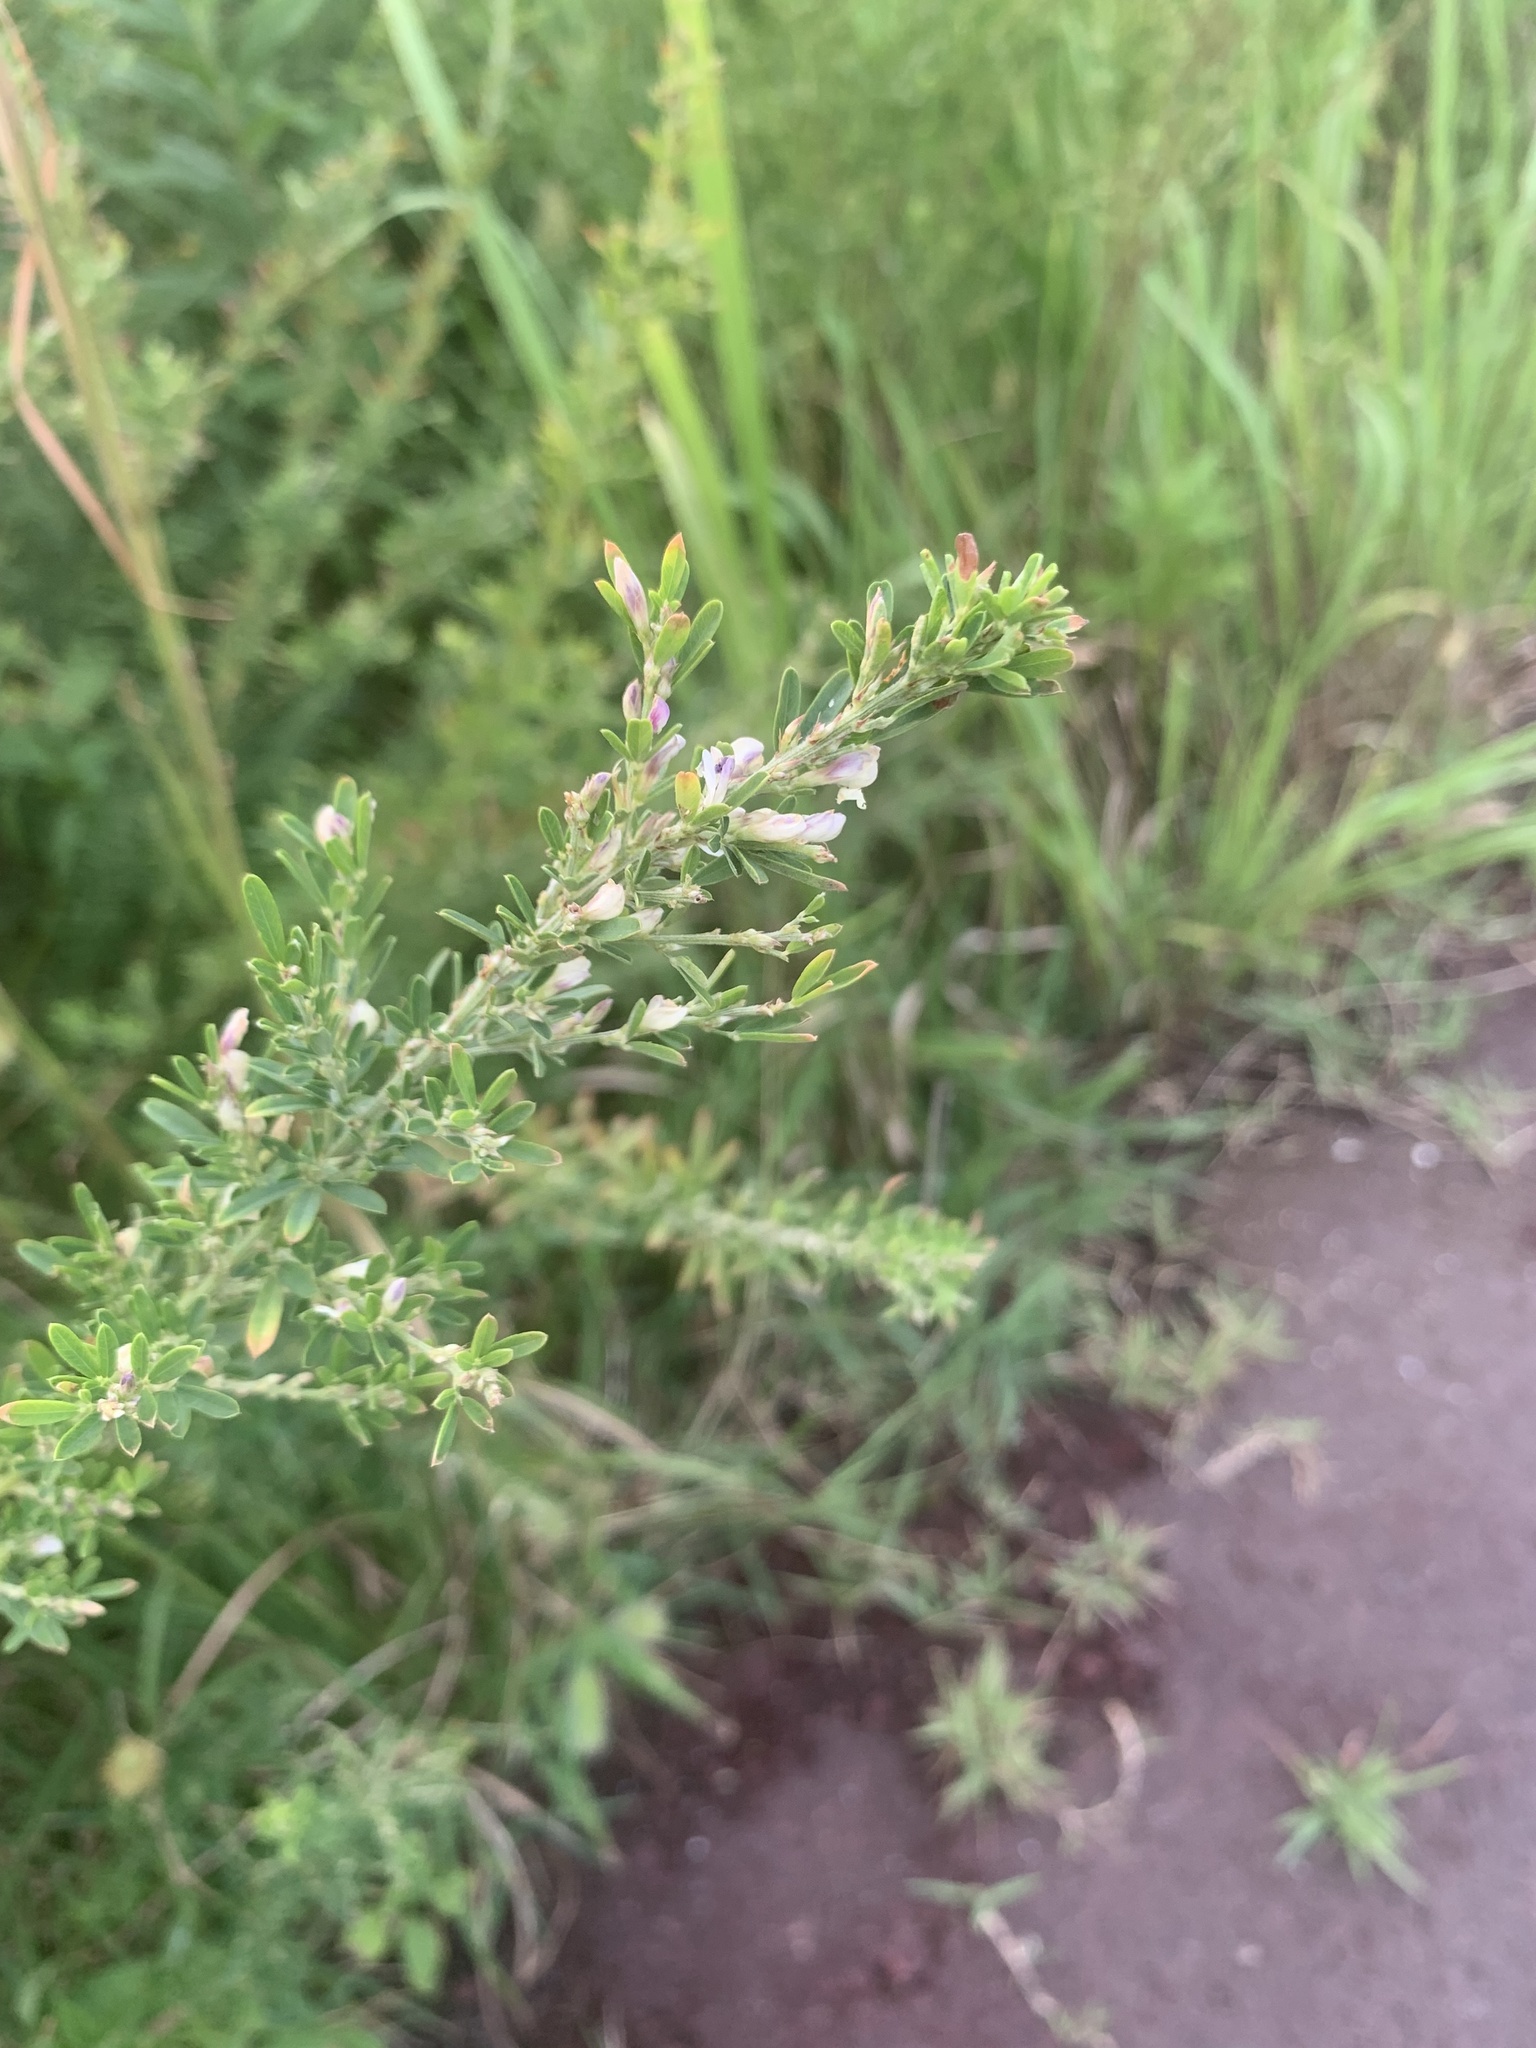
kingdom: Plantae
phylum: Tracheophyta
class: Magnoliopsida
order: Fabales
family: Fabaceae
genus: Lespedeza
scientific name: Lespedeza cuneata
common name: Chinese bush-clover
